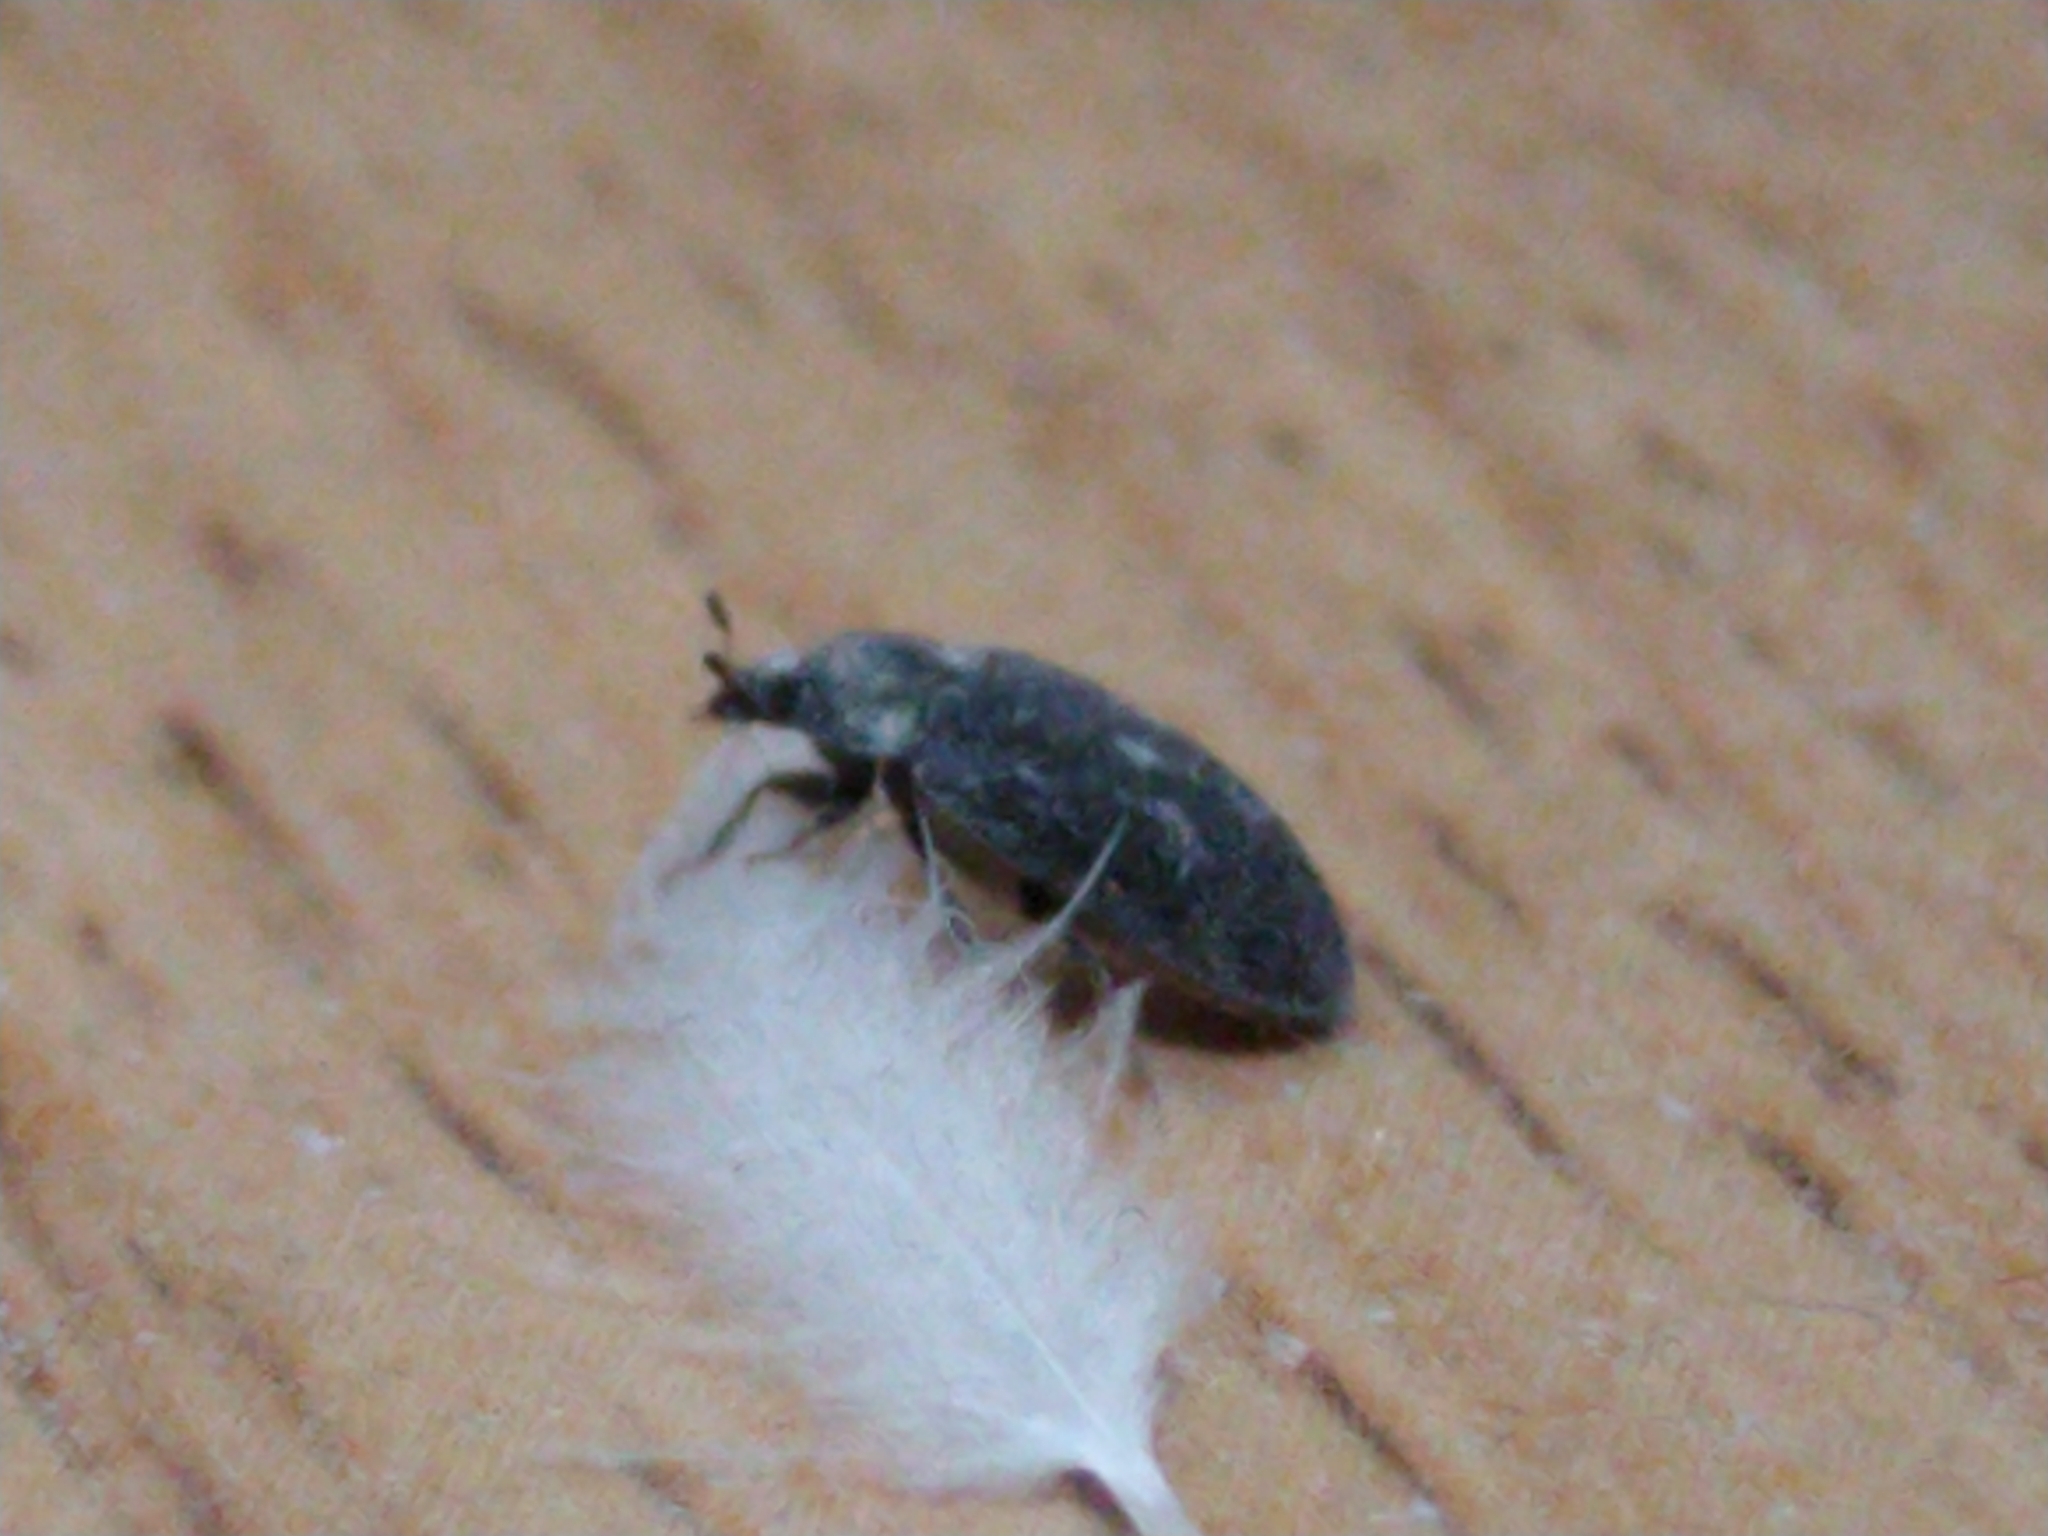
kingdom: Animalia
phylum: Arthropoda
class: Insecta
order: Coleoptera
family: Dermestidae
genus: Attagenus
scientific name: Attagenus pellio
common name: Two-spotted carpet beetle
